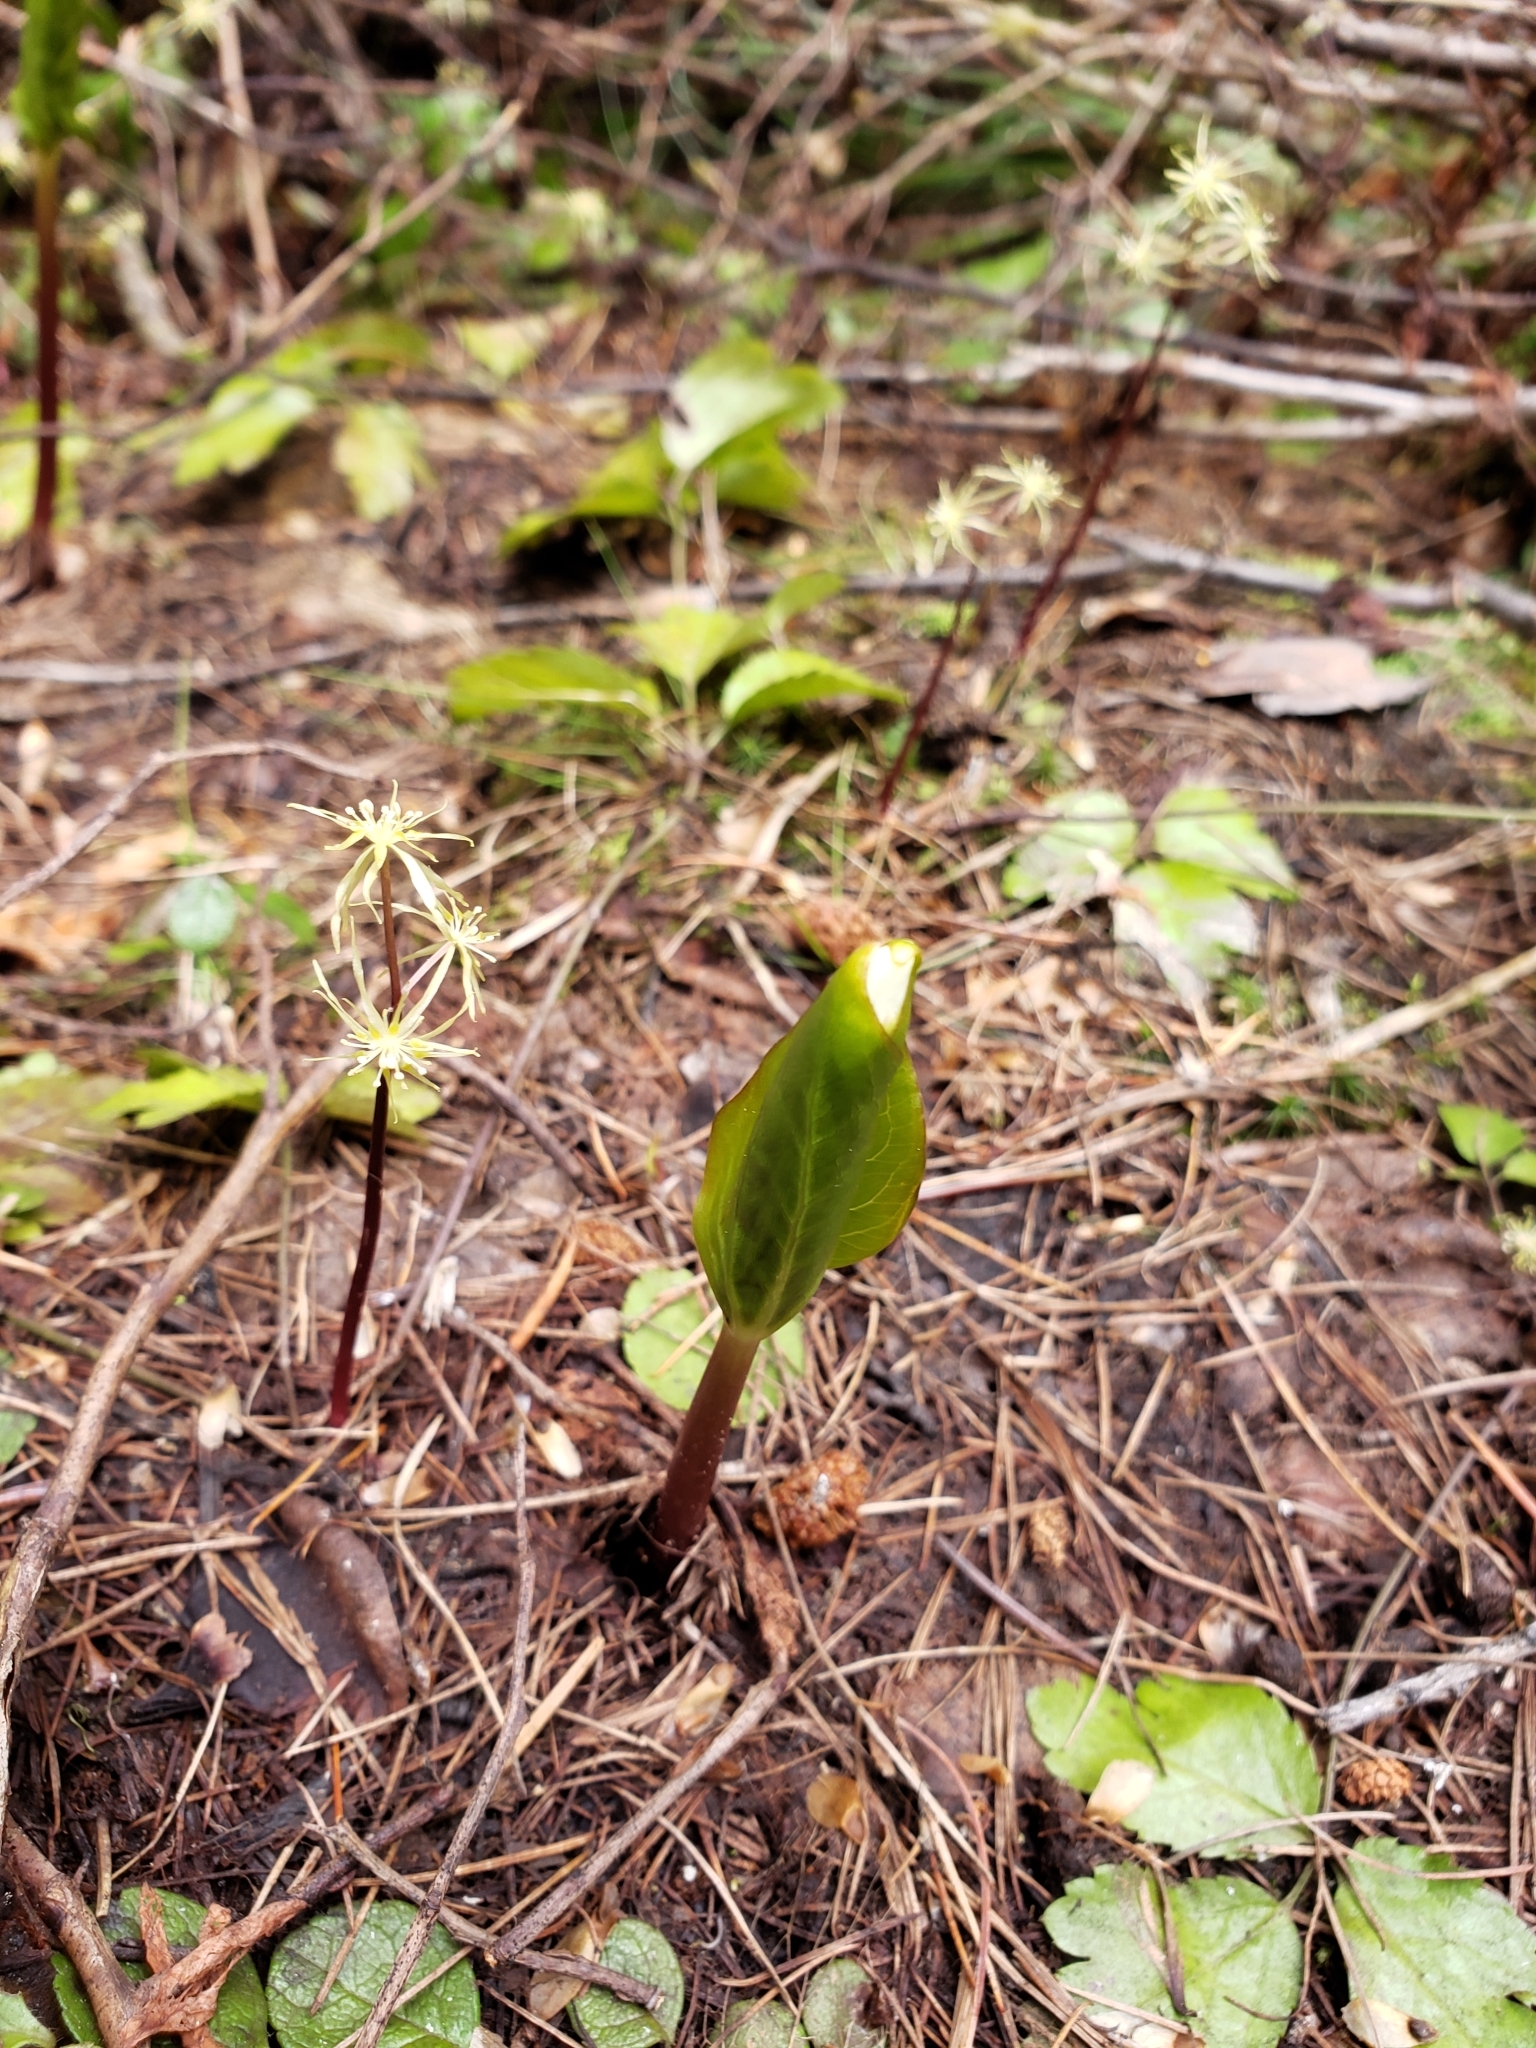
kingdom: Plantae
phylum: Tracheophyta
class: Liliopsida
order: Liliales
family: Melanthiaceae
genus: Trillium
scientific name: Trillium ovatum
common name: Pacific trillium
